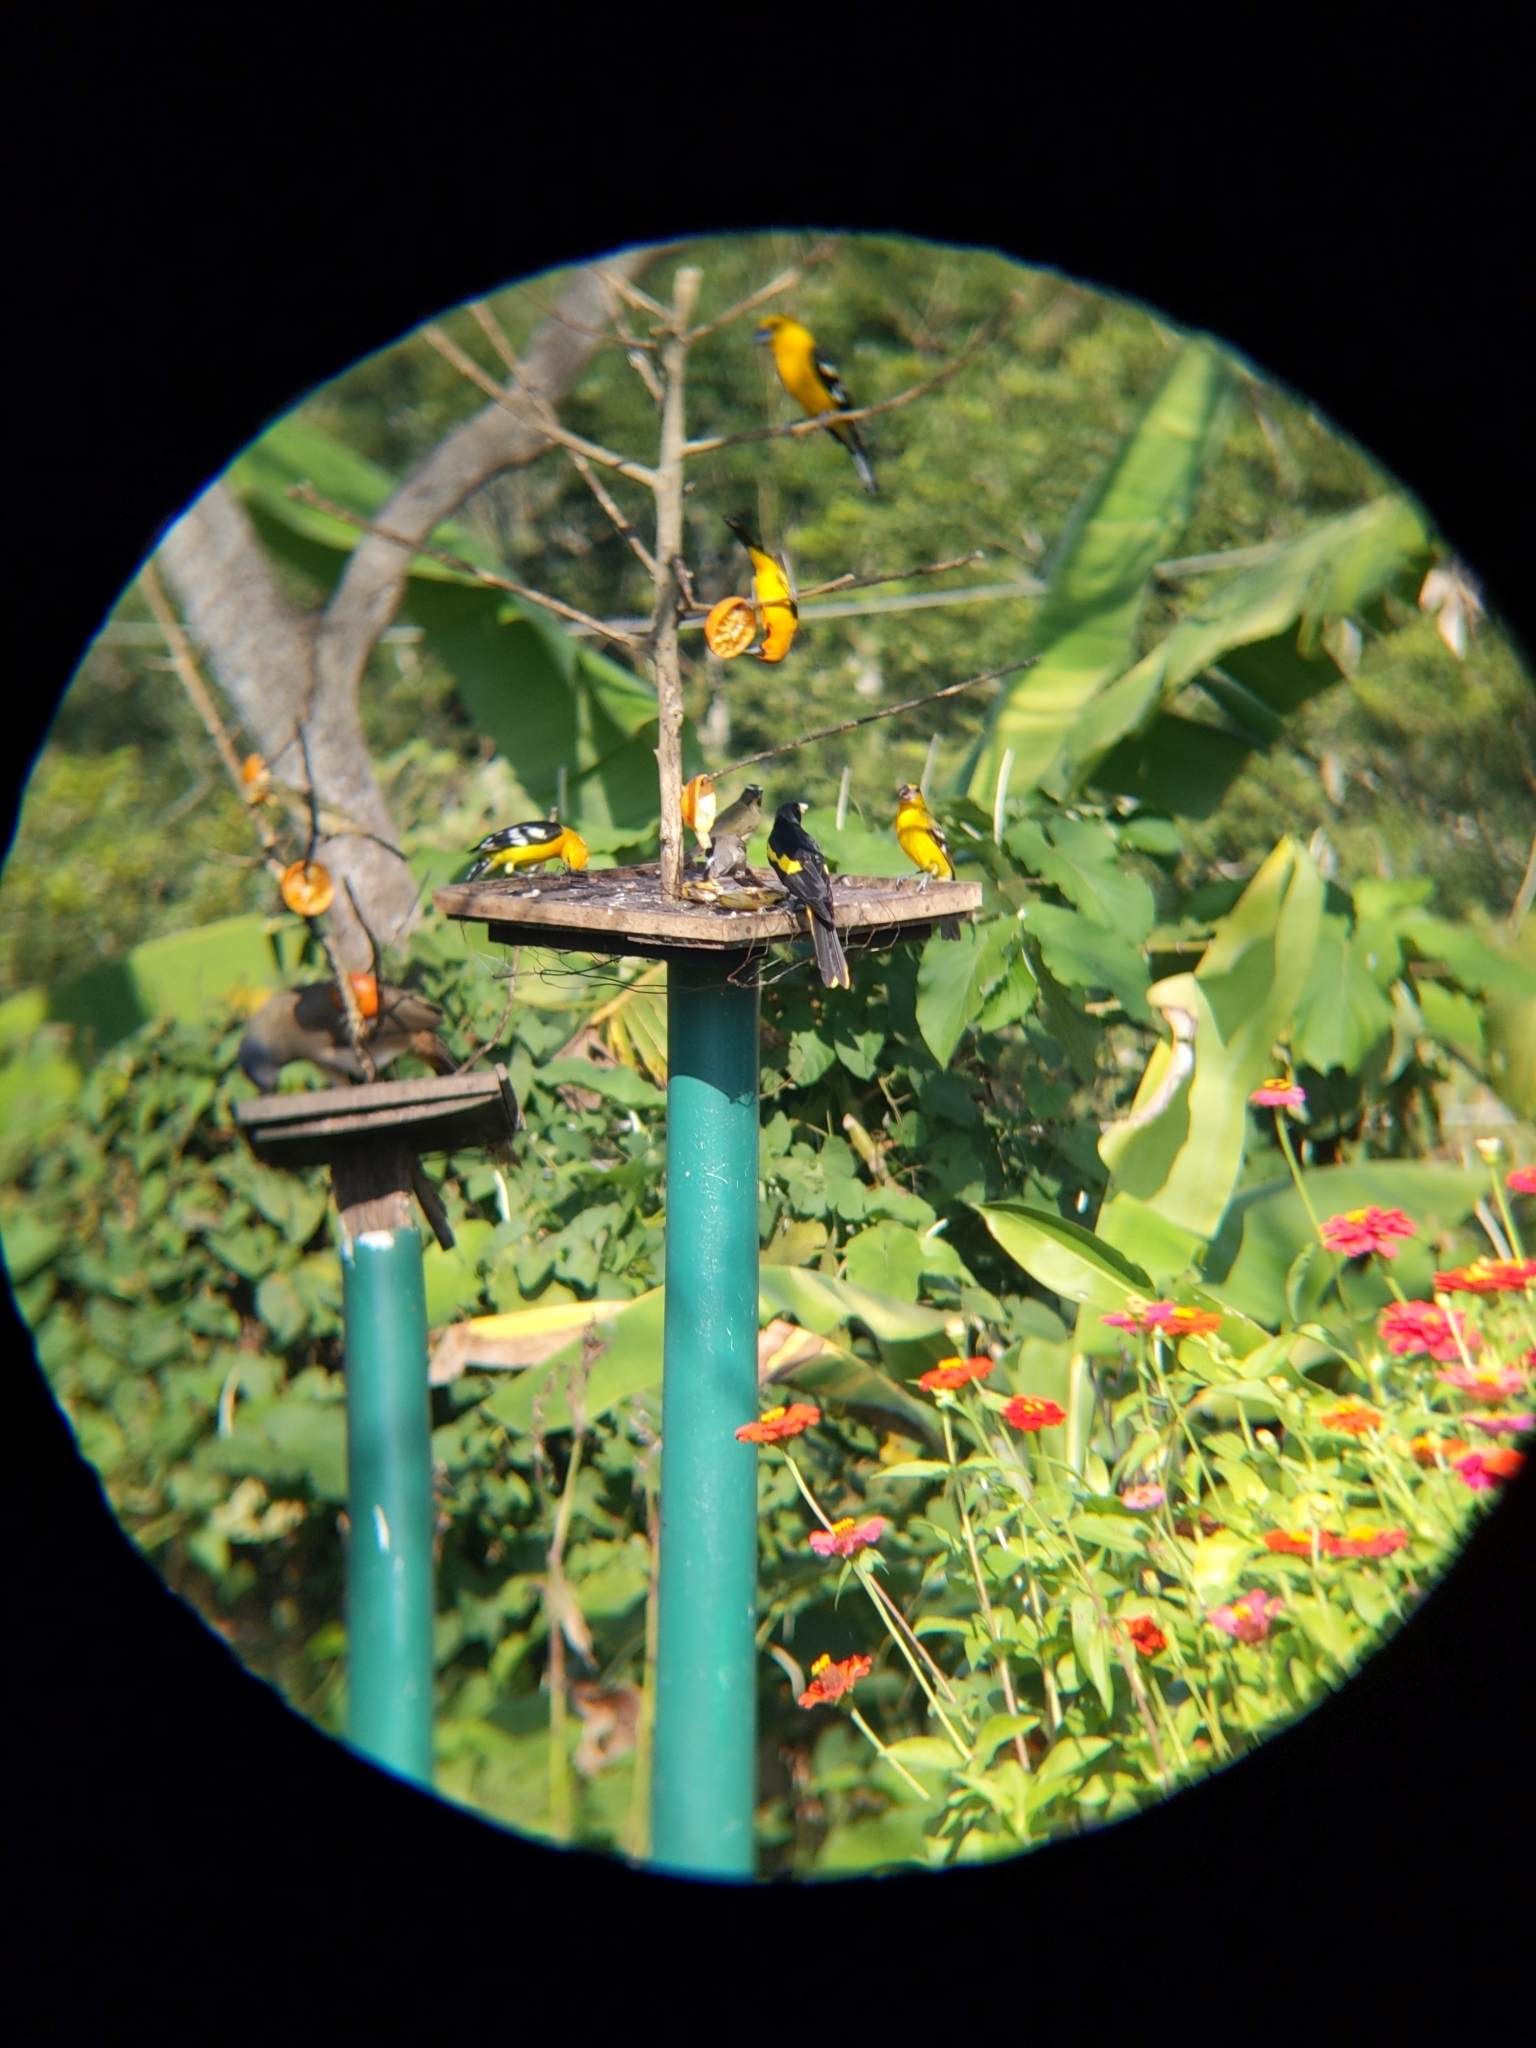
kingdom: Animalia
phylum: Chordata
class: Aves
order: Passeriformes
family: Icteridae
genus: Cacicus
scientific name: Cacicus melanicterus
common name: Yellow-winged cacique
